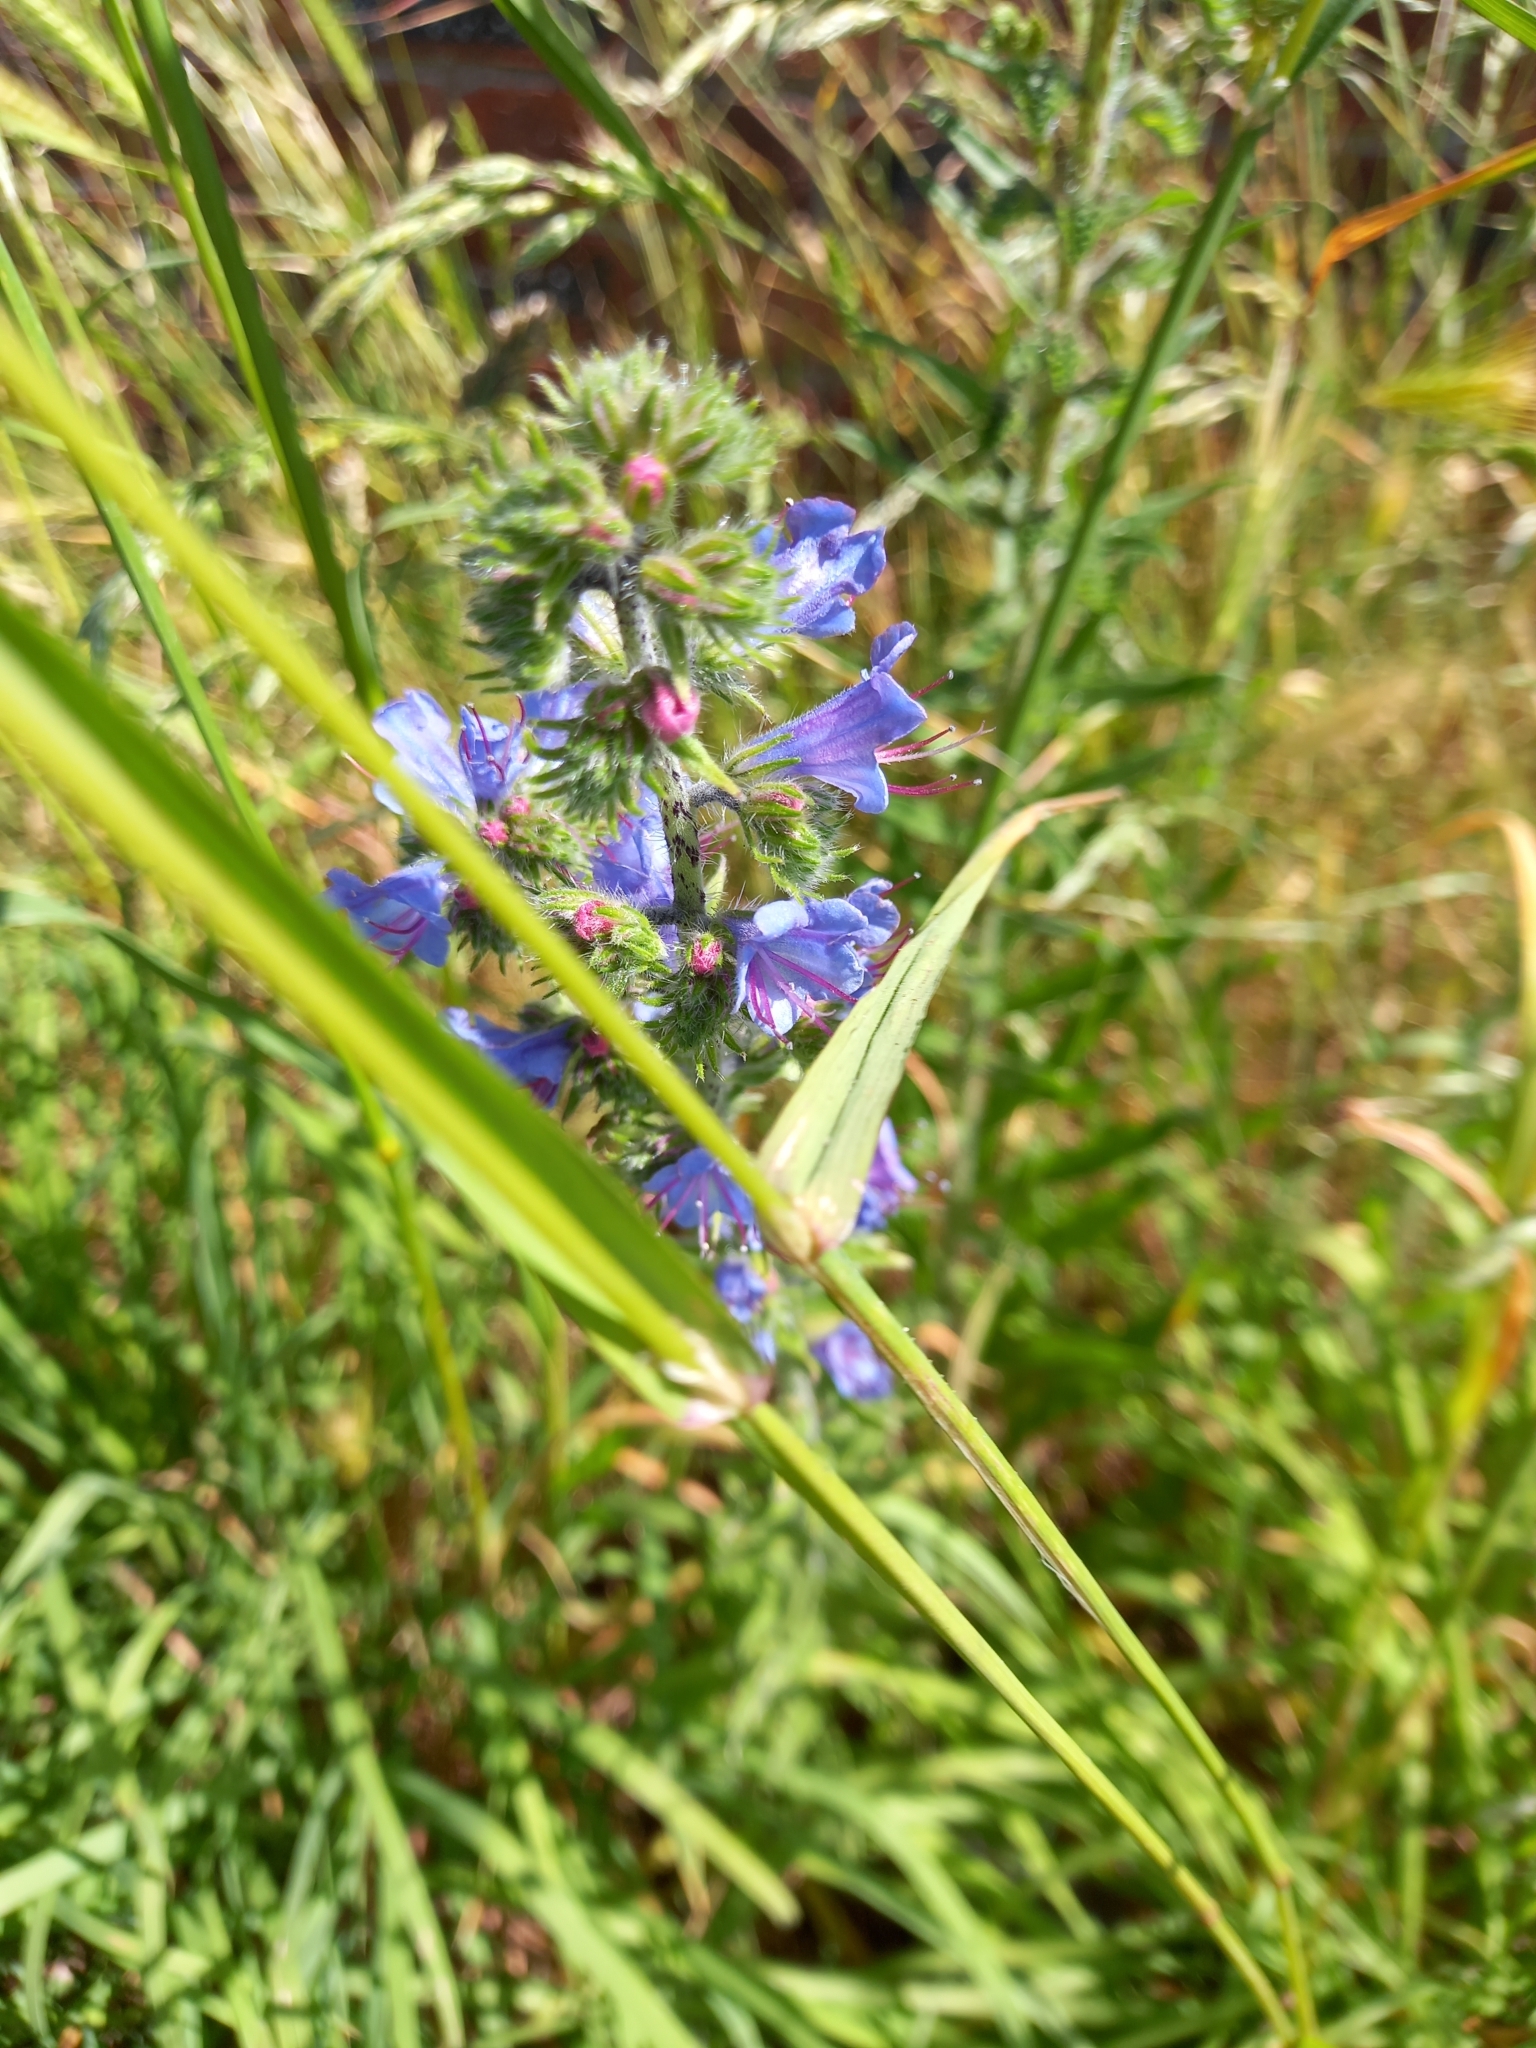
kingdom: Plantae
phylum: Tracheophyta
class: Magnoliopsida
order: Boraginales
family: Boraginaceae
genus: Echium
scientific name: Echium vulgare
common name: Common viper's bugloss
